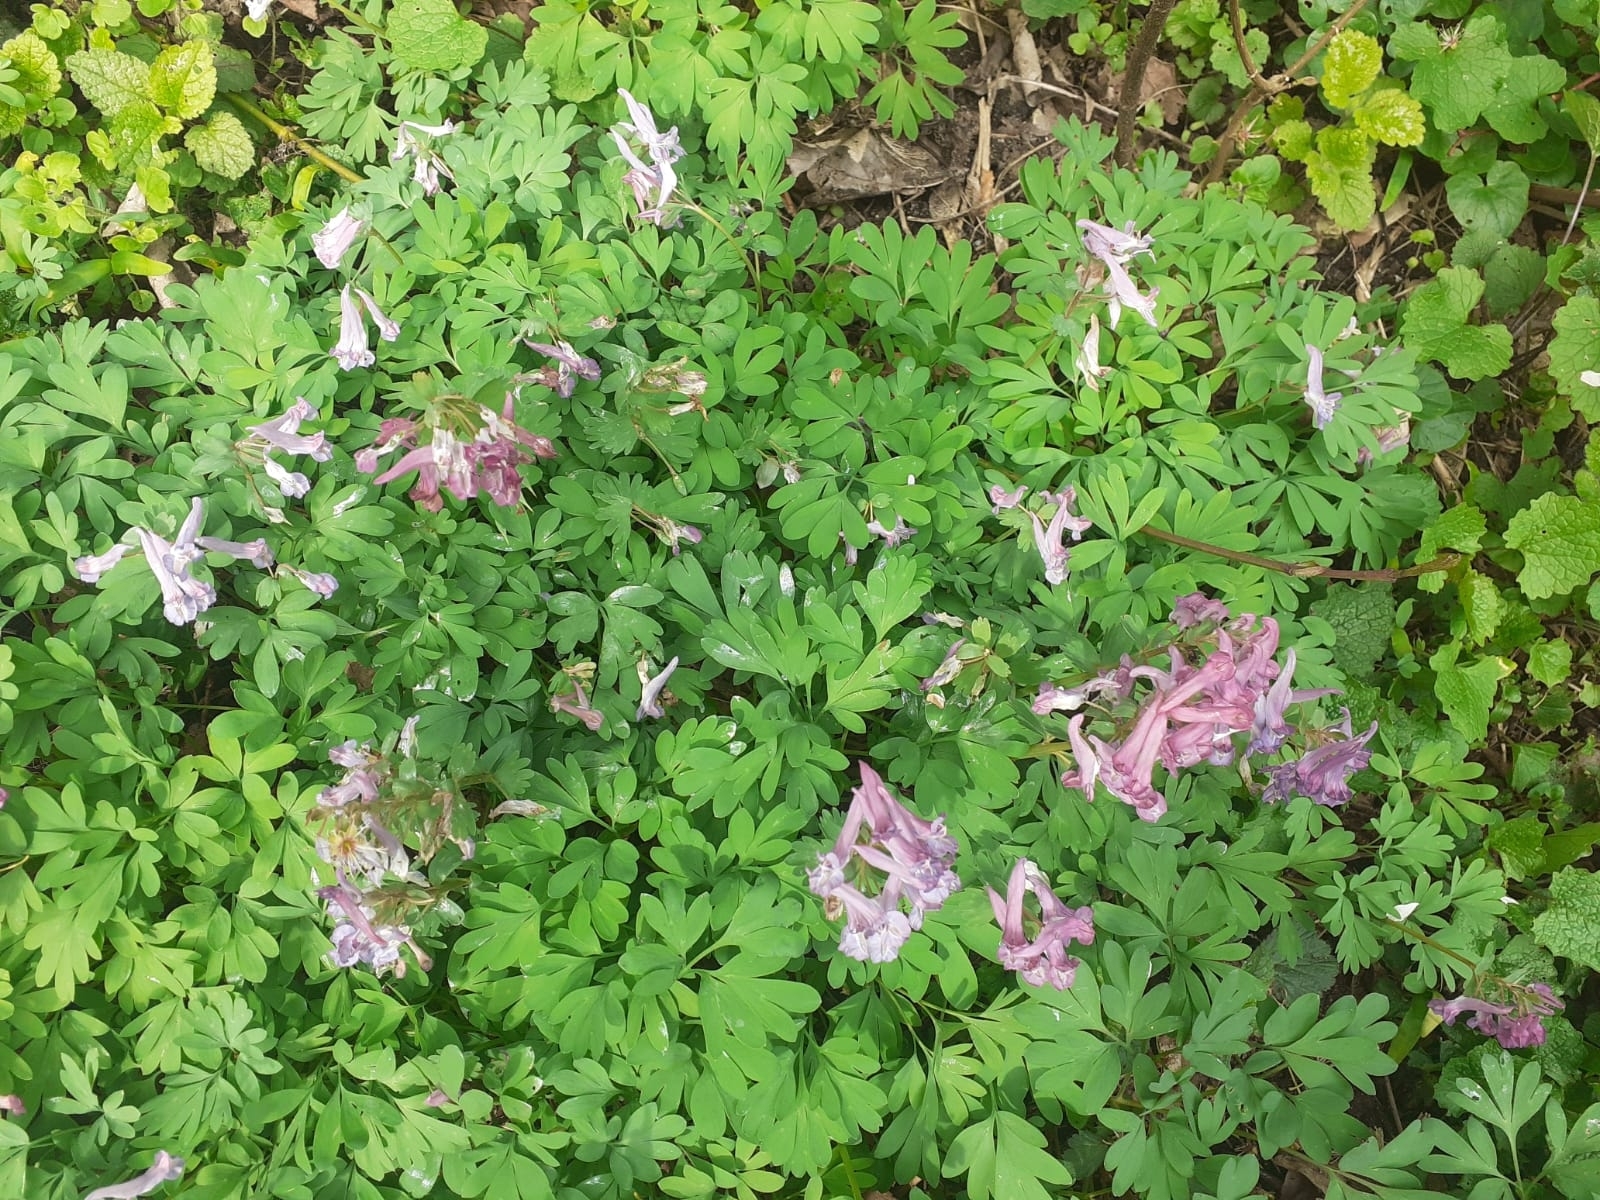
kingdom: Plantae
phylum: Tracheophyta
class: Magnoliopsida
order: Ranunculales
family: Papaveraceae
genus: Corydalis
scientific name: Corydalis solida
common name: Bird-in-a-bush
